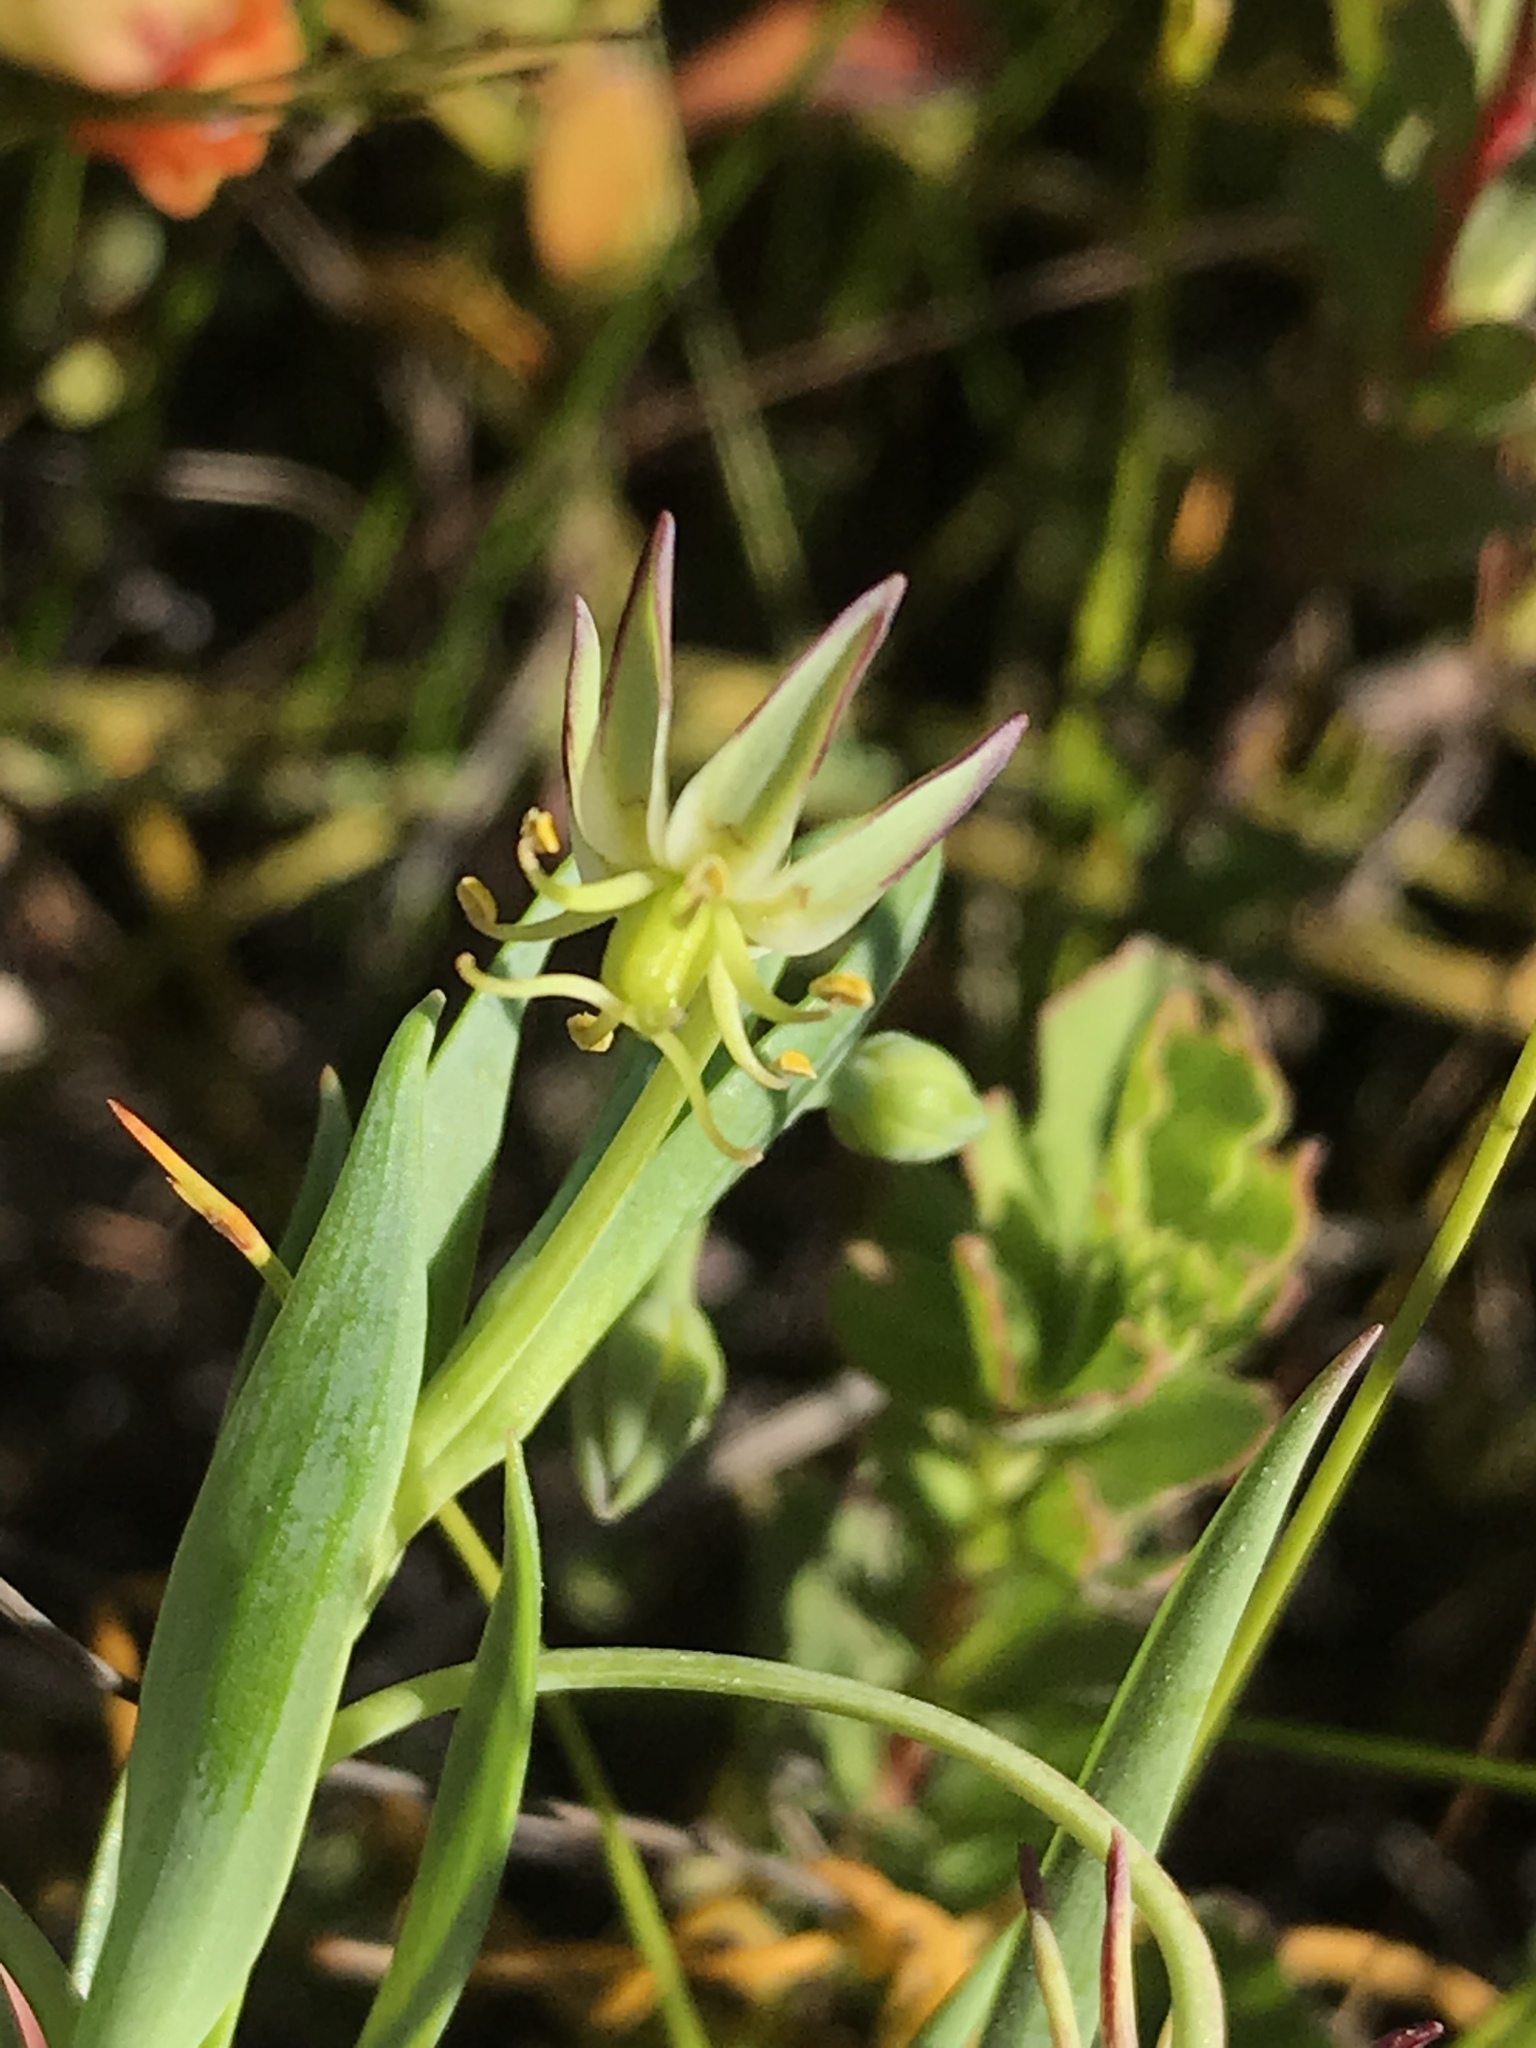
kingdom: Plantae
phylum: Tracheophyta
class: Liliopsida
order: Liliales
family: Colchicaceae
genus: Ornithoglossum
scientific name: Ornithoglossum viride
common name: Cape poison-onion
